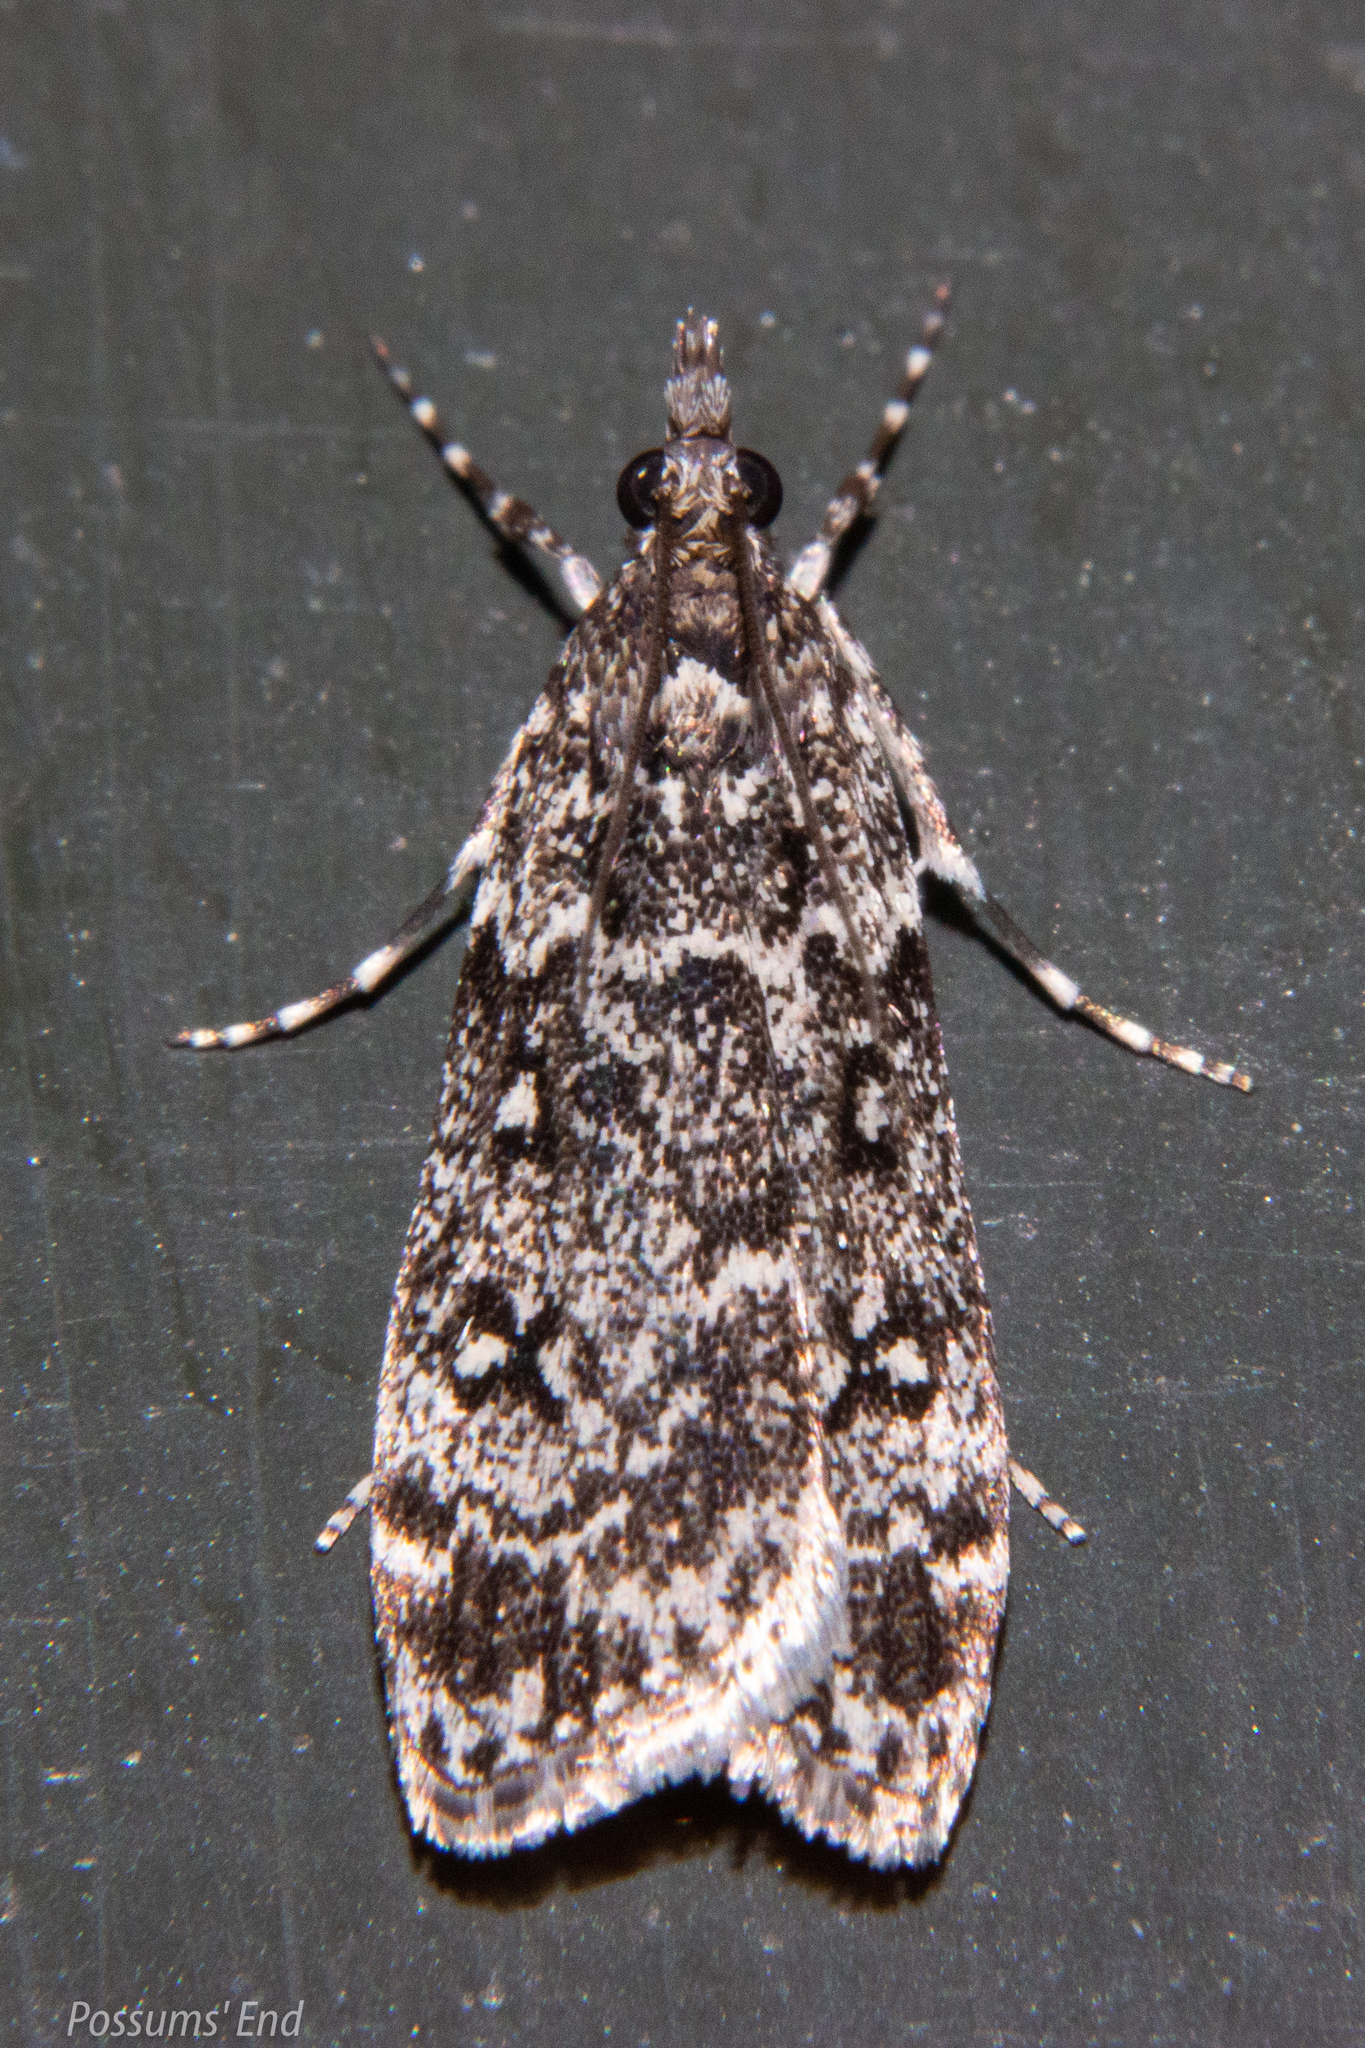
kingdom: Animalia
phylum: Arthropoda
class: Insecta
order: Lepidoptera
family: Crambidae
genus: Eudonia
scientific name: Eudonia philerga
